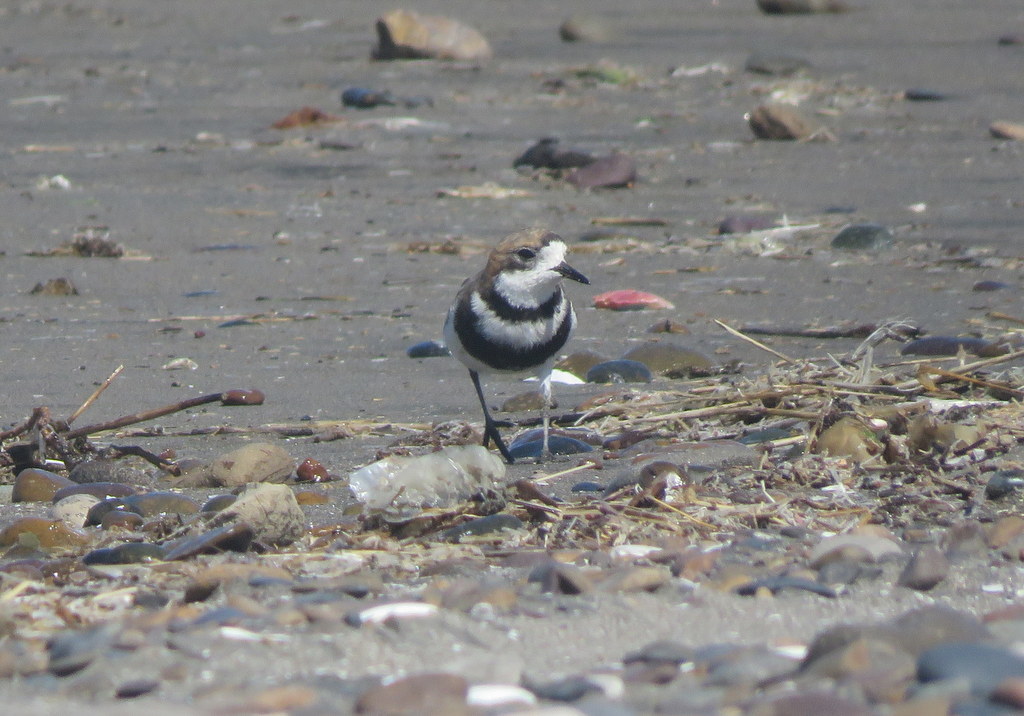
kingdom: Animalia
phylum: Chordata
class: Aves
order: Charadriiformes
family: Charadriidae
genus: Anarhynchus
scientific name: Anarhynchus
